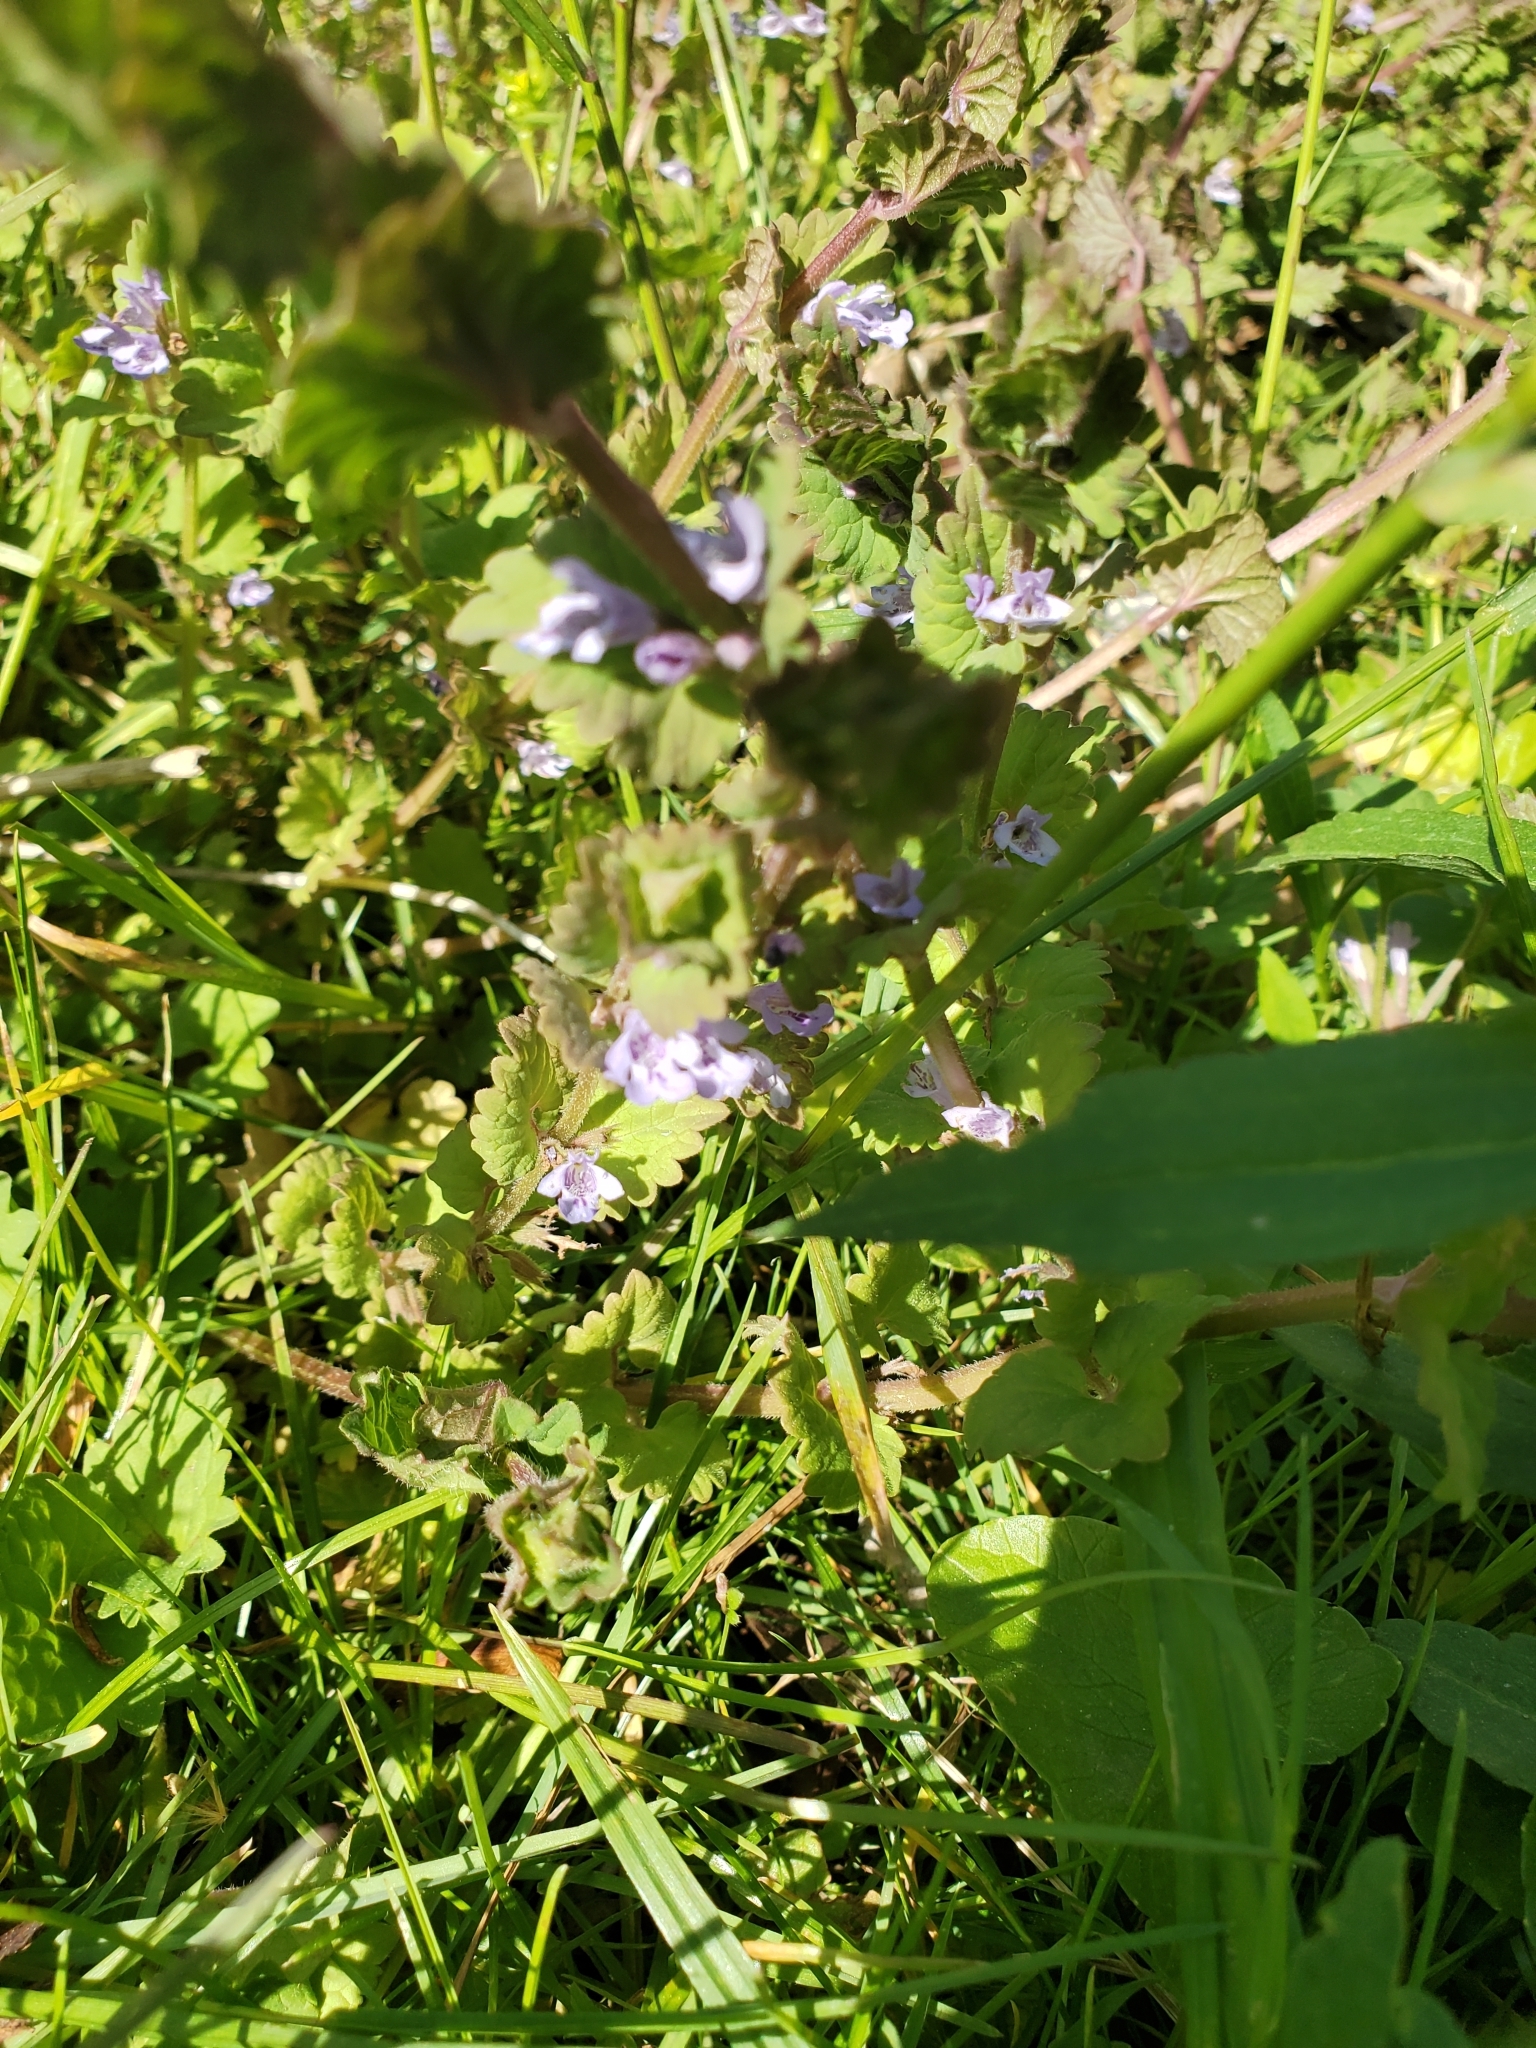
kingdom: Plantae
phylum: Tracheophyta
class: Magnoliopsida
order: Lamiales
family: Lamiaceae
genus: Glechoma
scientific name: Glechoma hederacea
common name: Ground ivy
